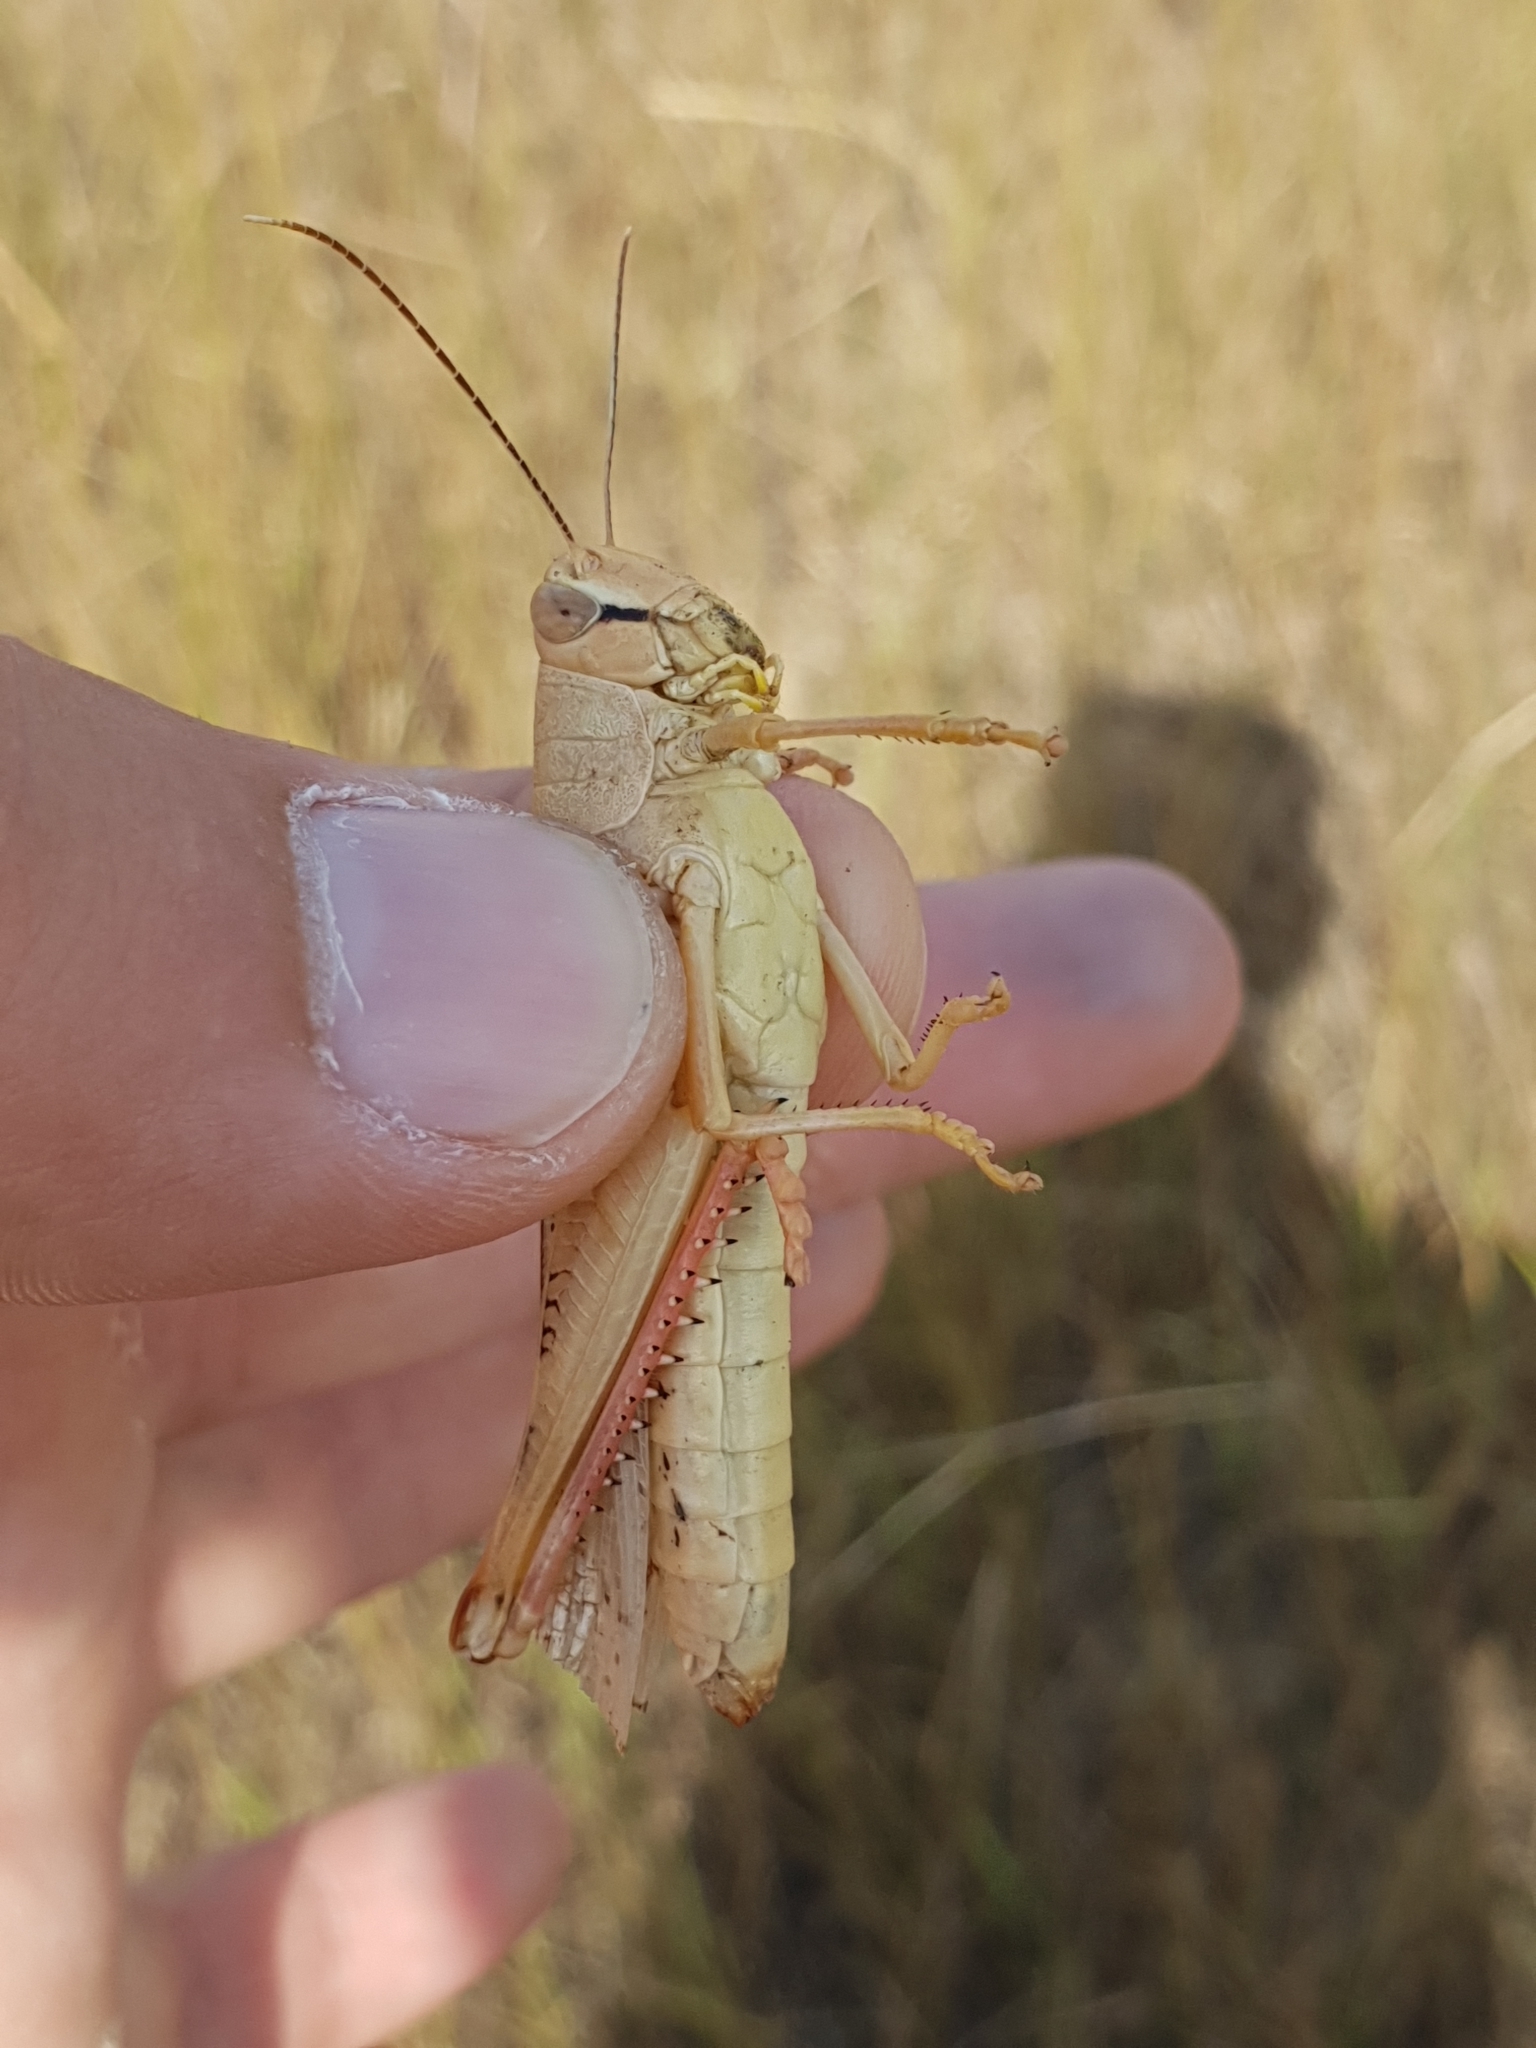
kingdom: Animalia
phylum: Arthropoda
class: Insecta
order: Orthoptera
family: Acrididae
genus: Heteracris
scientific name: Heteracris pterosticha
